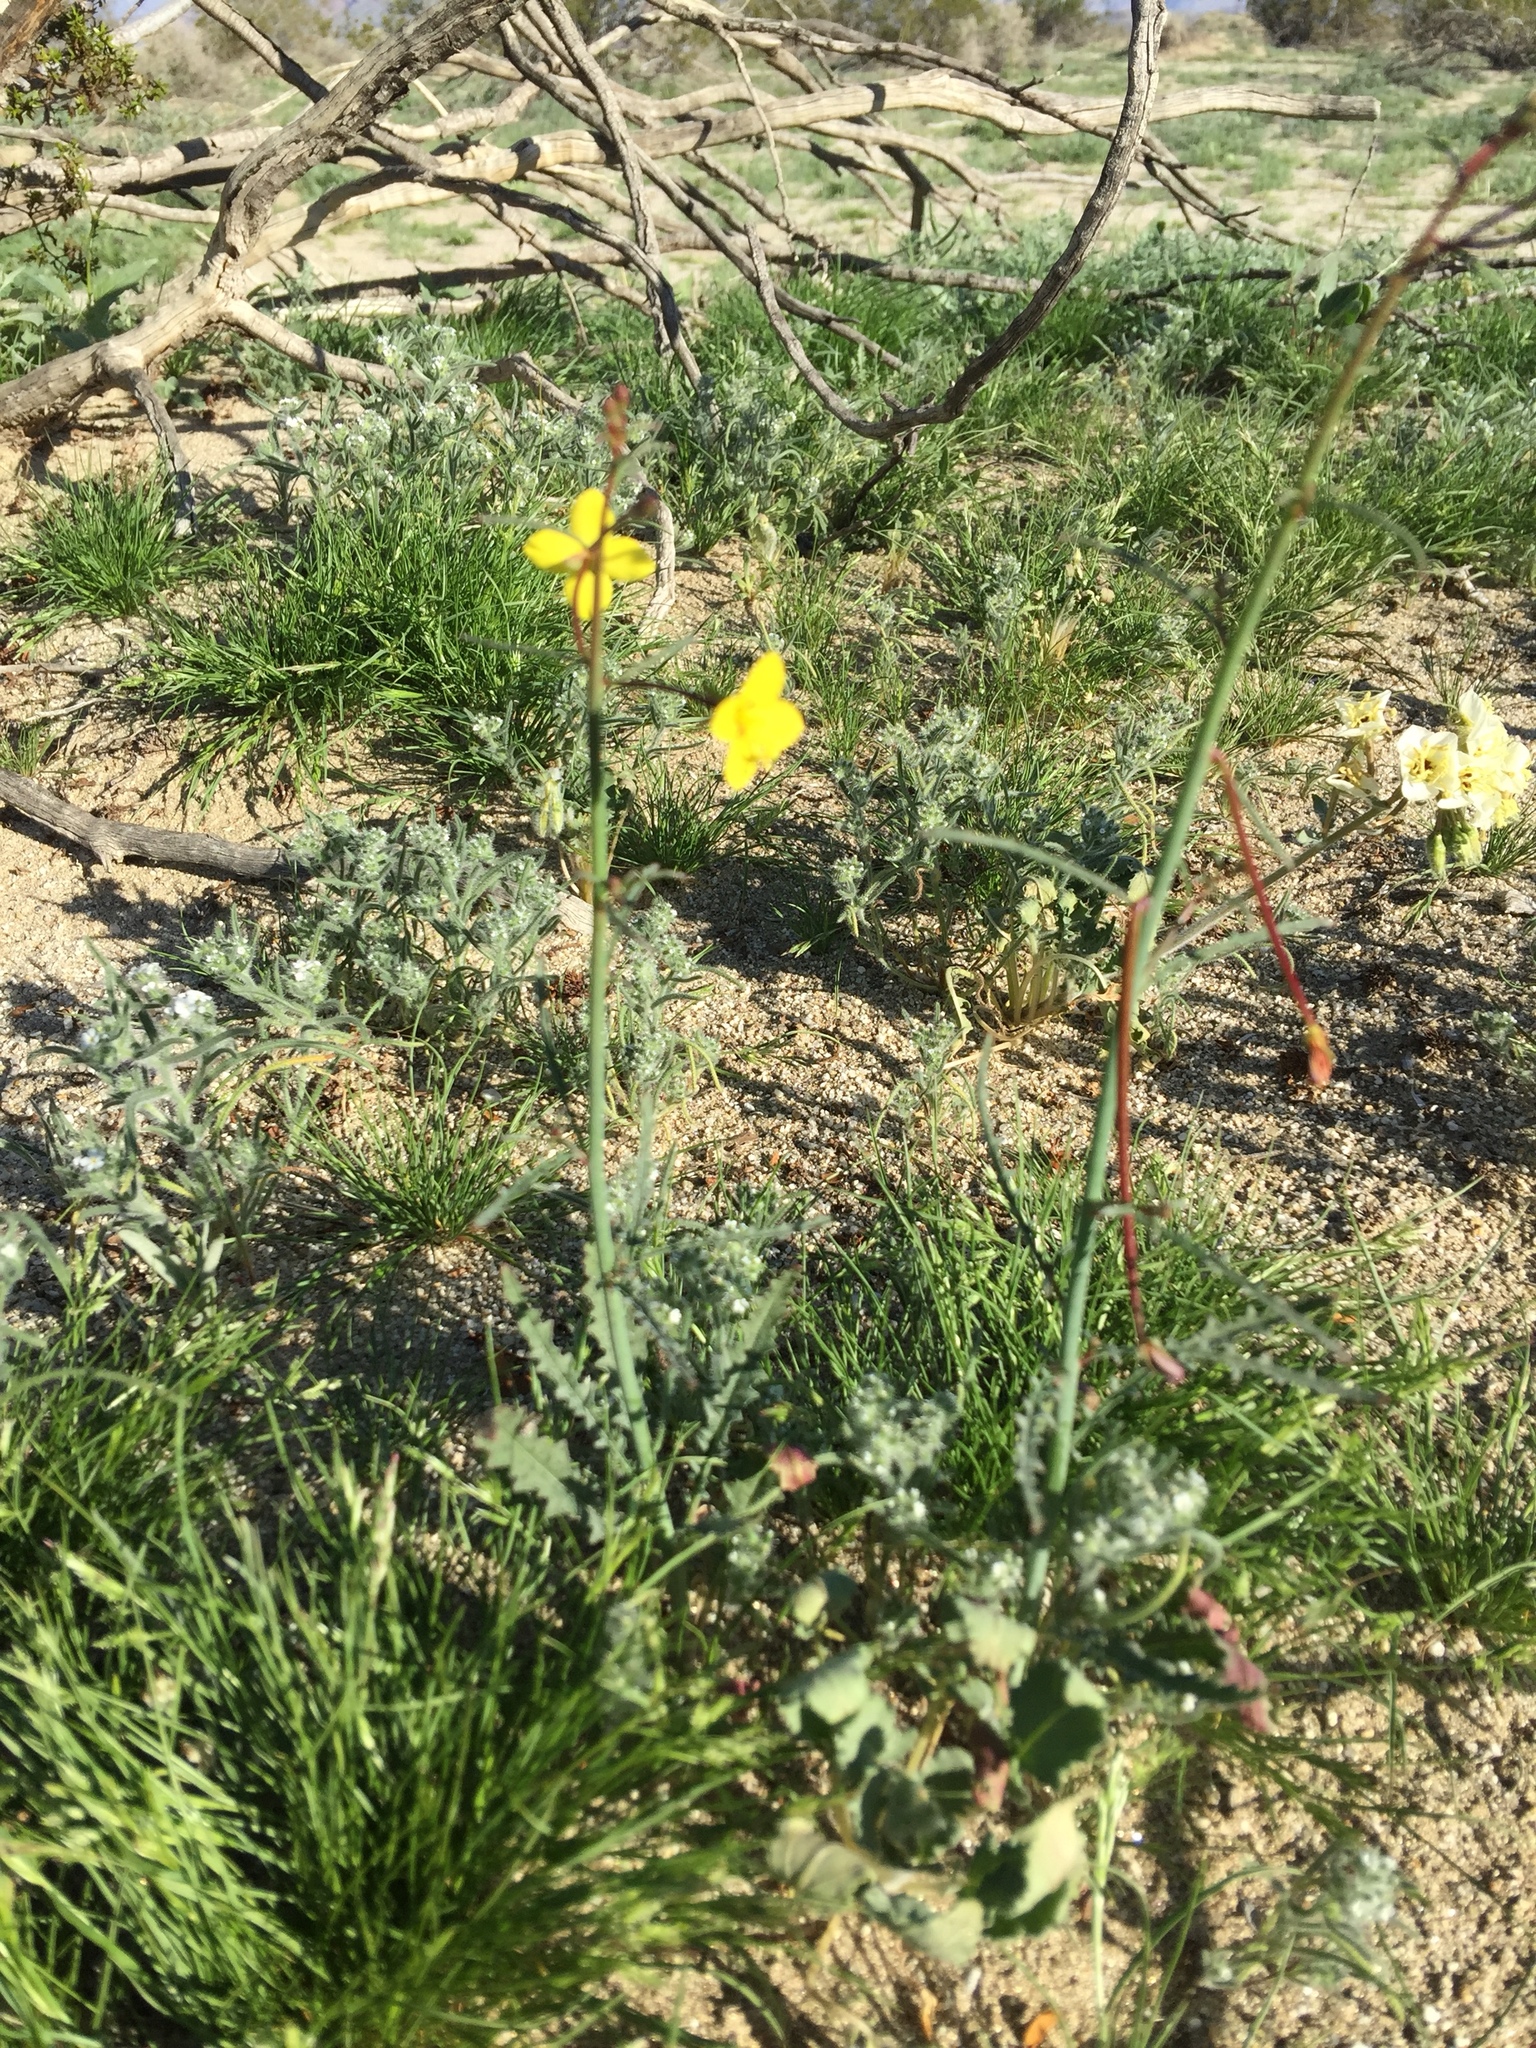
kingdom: Plantae
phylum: Tracheophyta
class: Magnoliopsida
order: Myrtales
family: Onagraceae
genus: Eulobus
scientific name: Eulobus californicus
